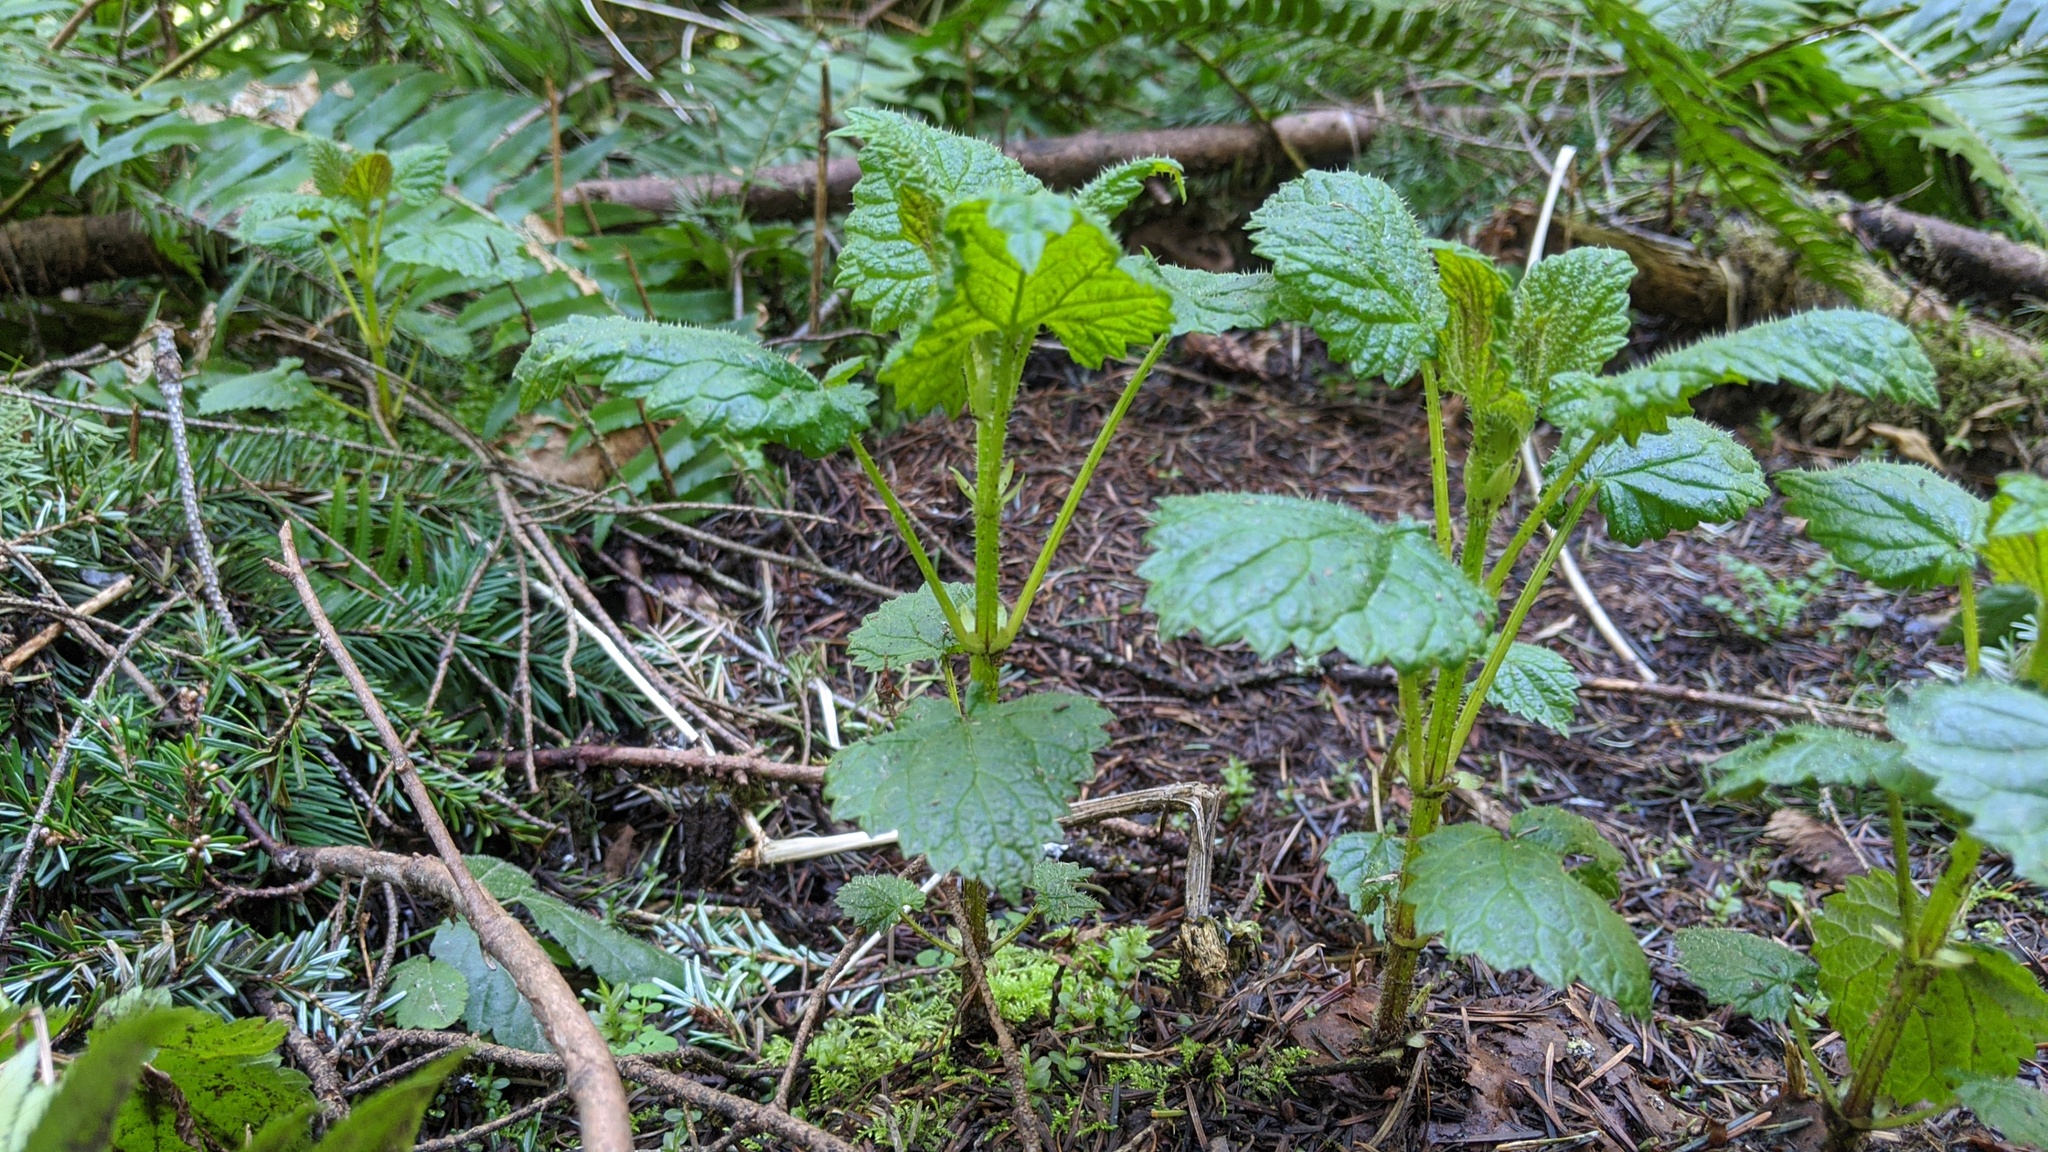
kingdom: Plantae
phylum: Tracheophyta
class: Magnoliopsida
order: Rosales
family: Urticaceae
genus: Urtica
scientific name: Urtica dioica
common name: Common nettle
